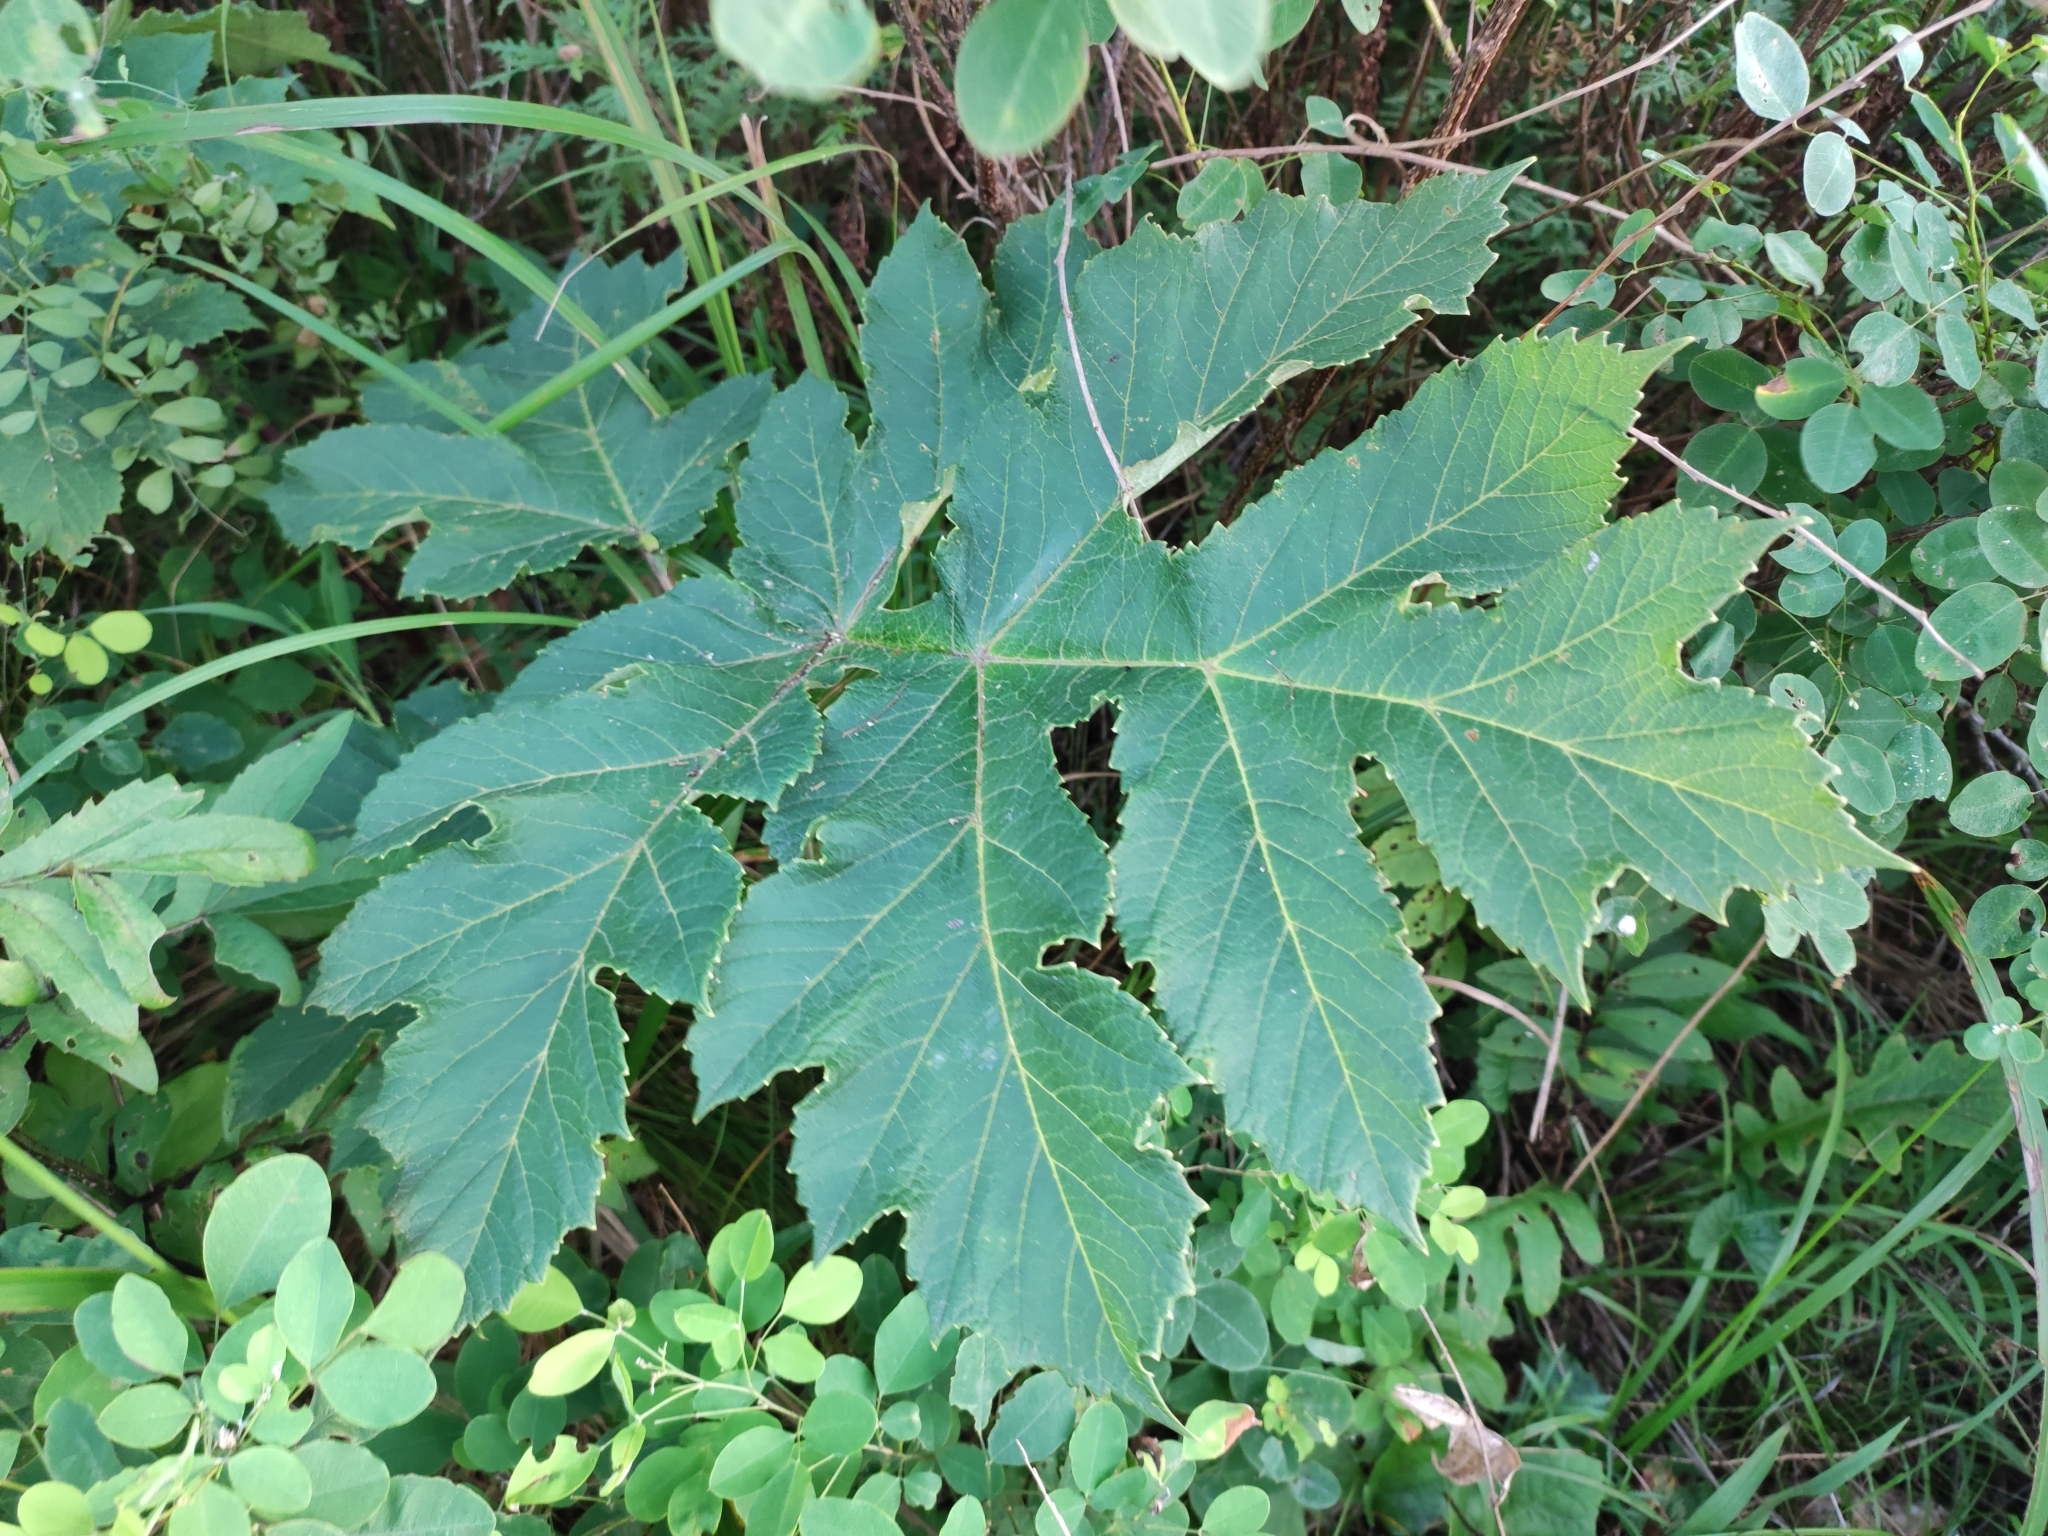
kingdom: Plantae
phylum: Tracheophyta
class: Magnoliopsida
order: Apiales
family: Apiaceae
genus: Heracleum
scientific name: Heracleum dissectum
